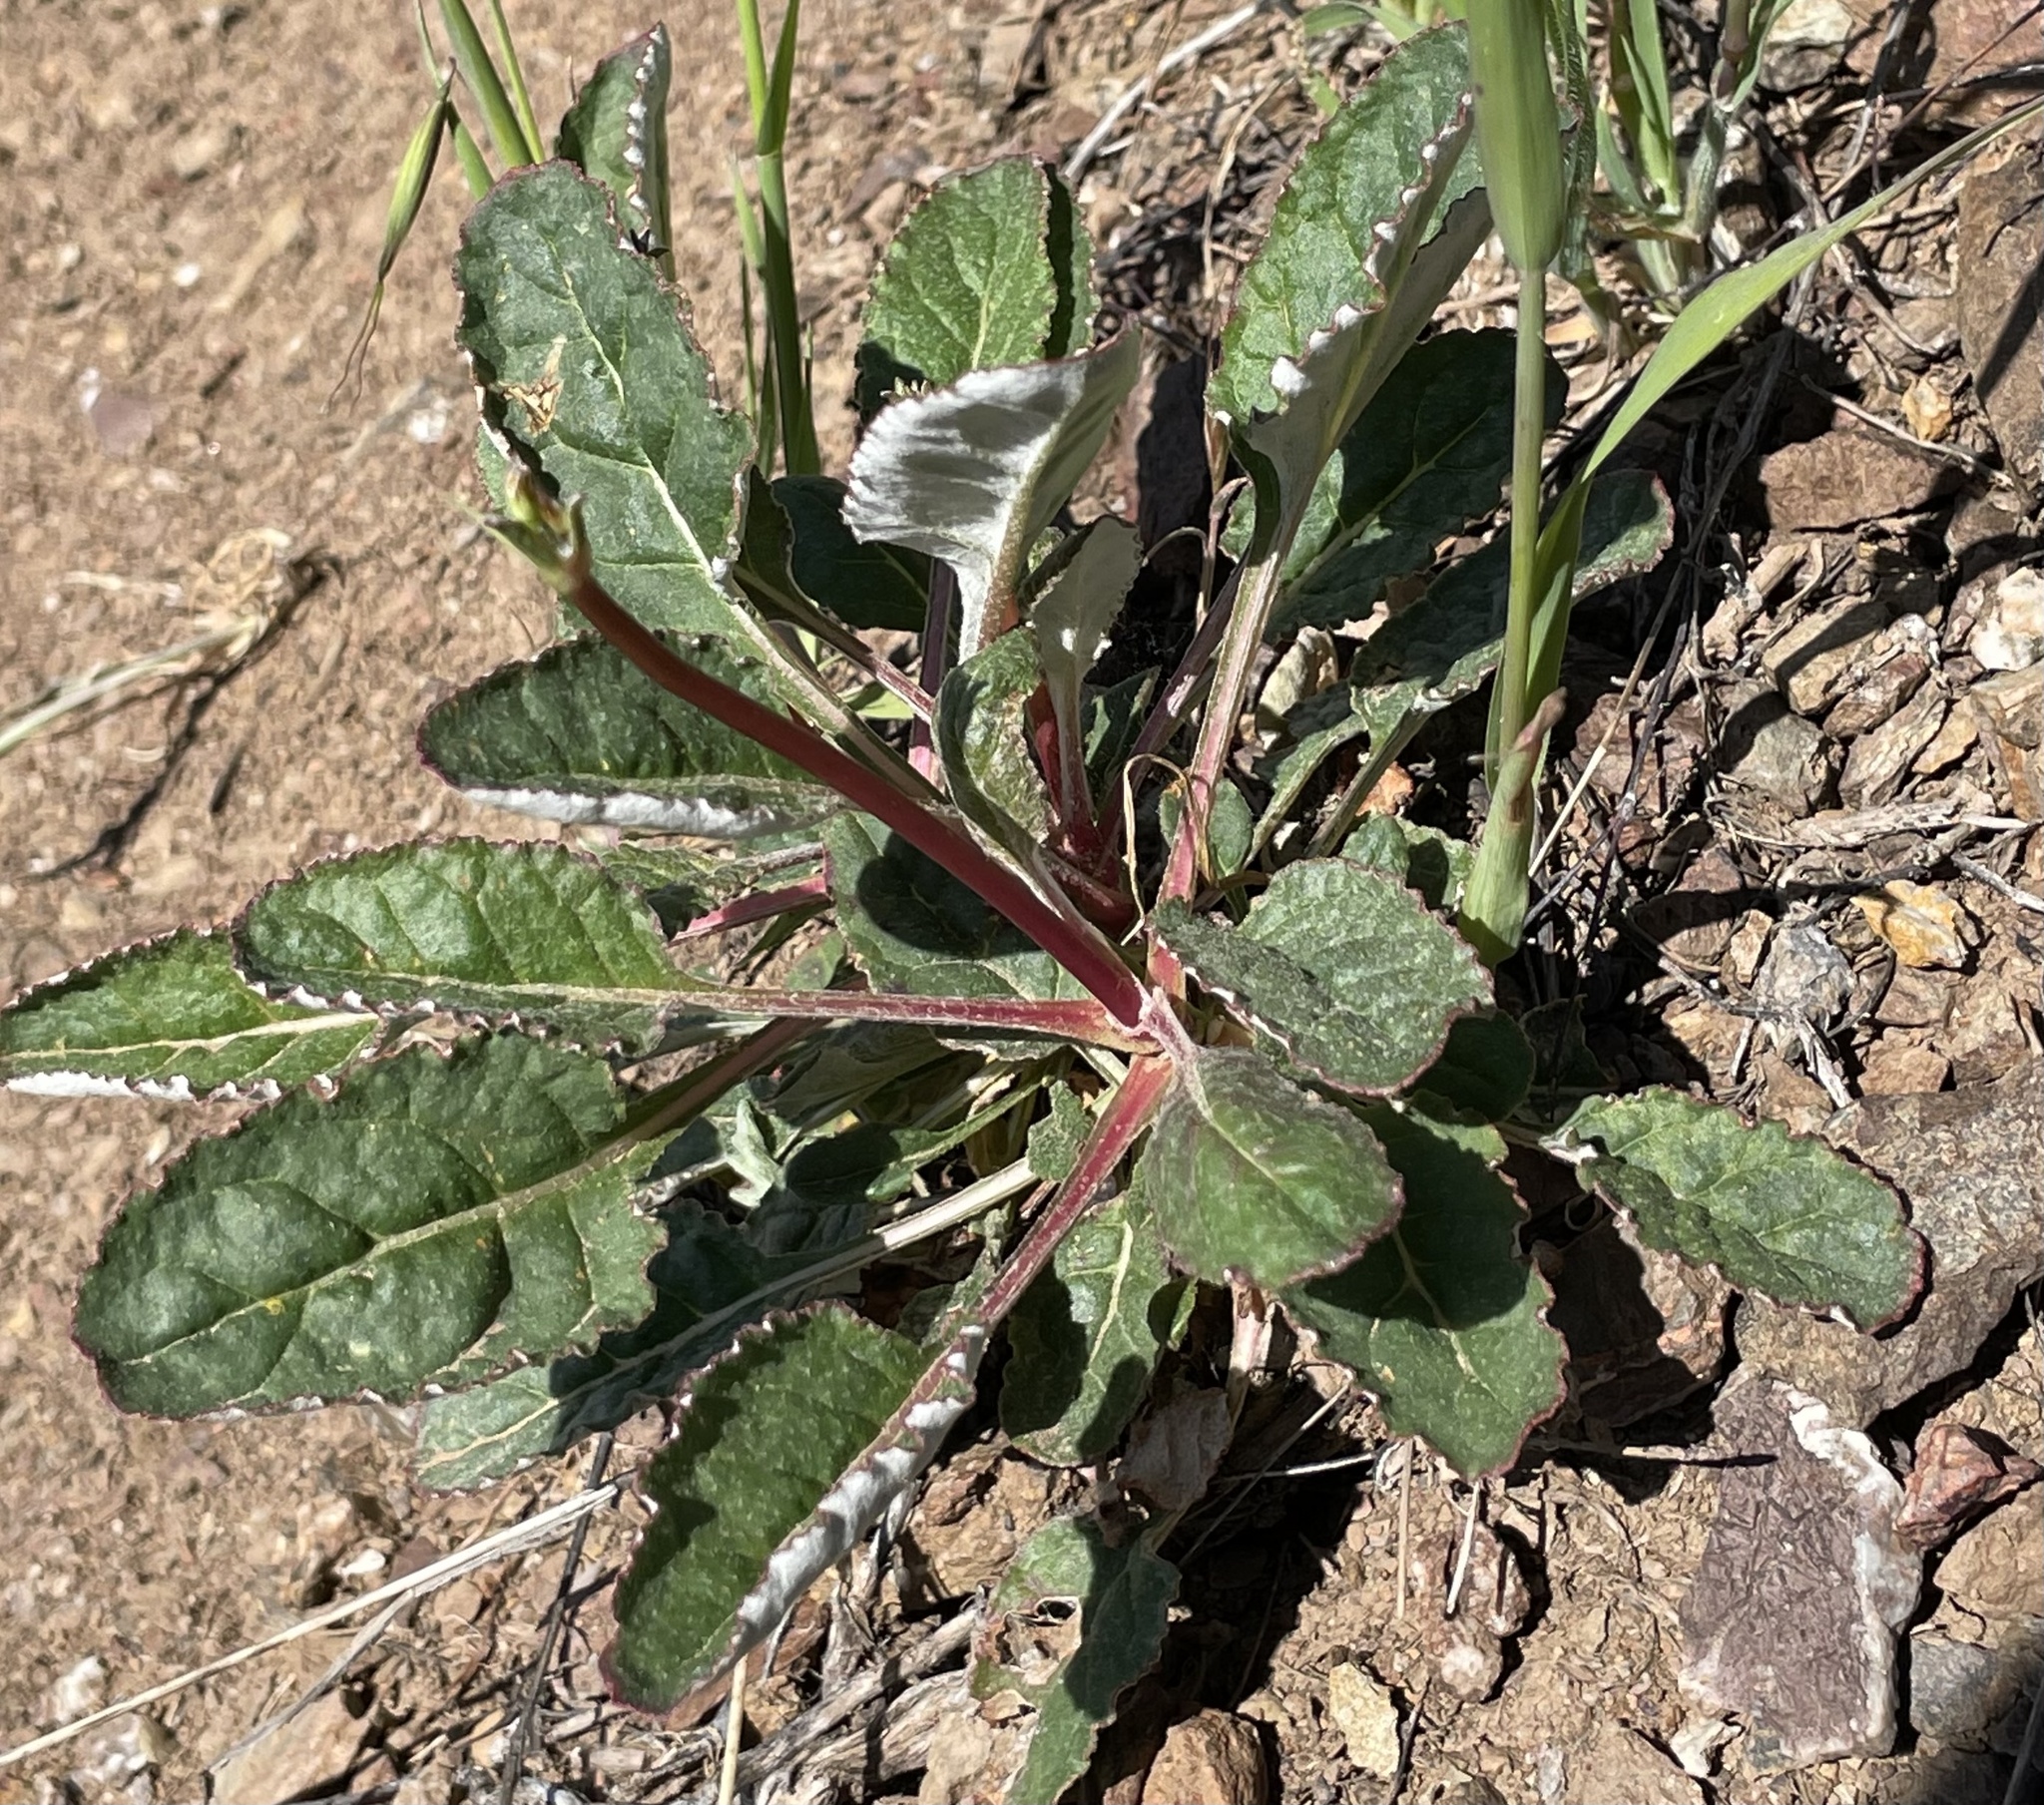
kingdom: Plantae
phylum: Tracheophyta
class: Magnoliopsida
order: Caryophyllales
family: Polygonaceae
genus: Eriogonum
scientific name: Eriogonum nudum
